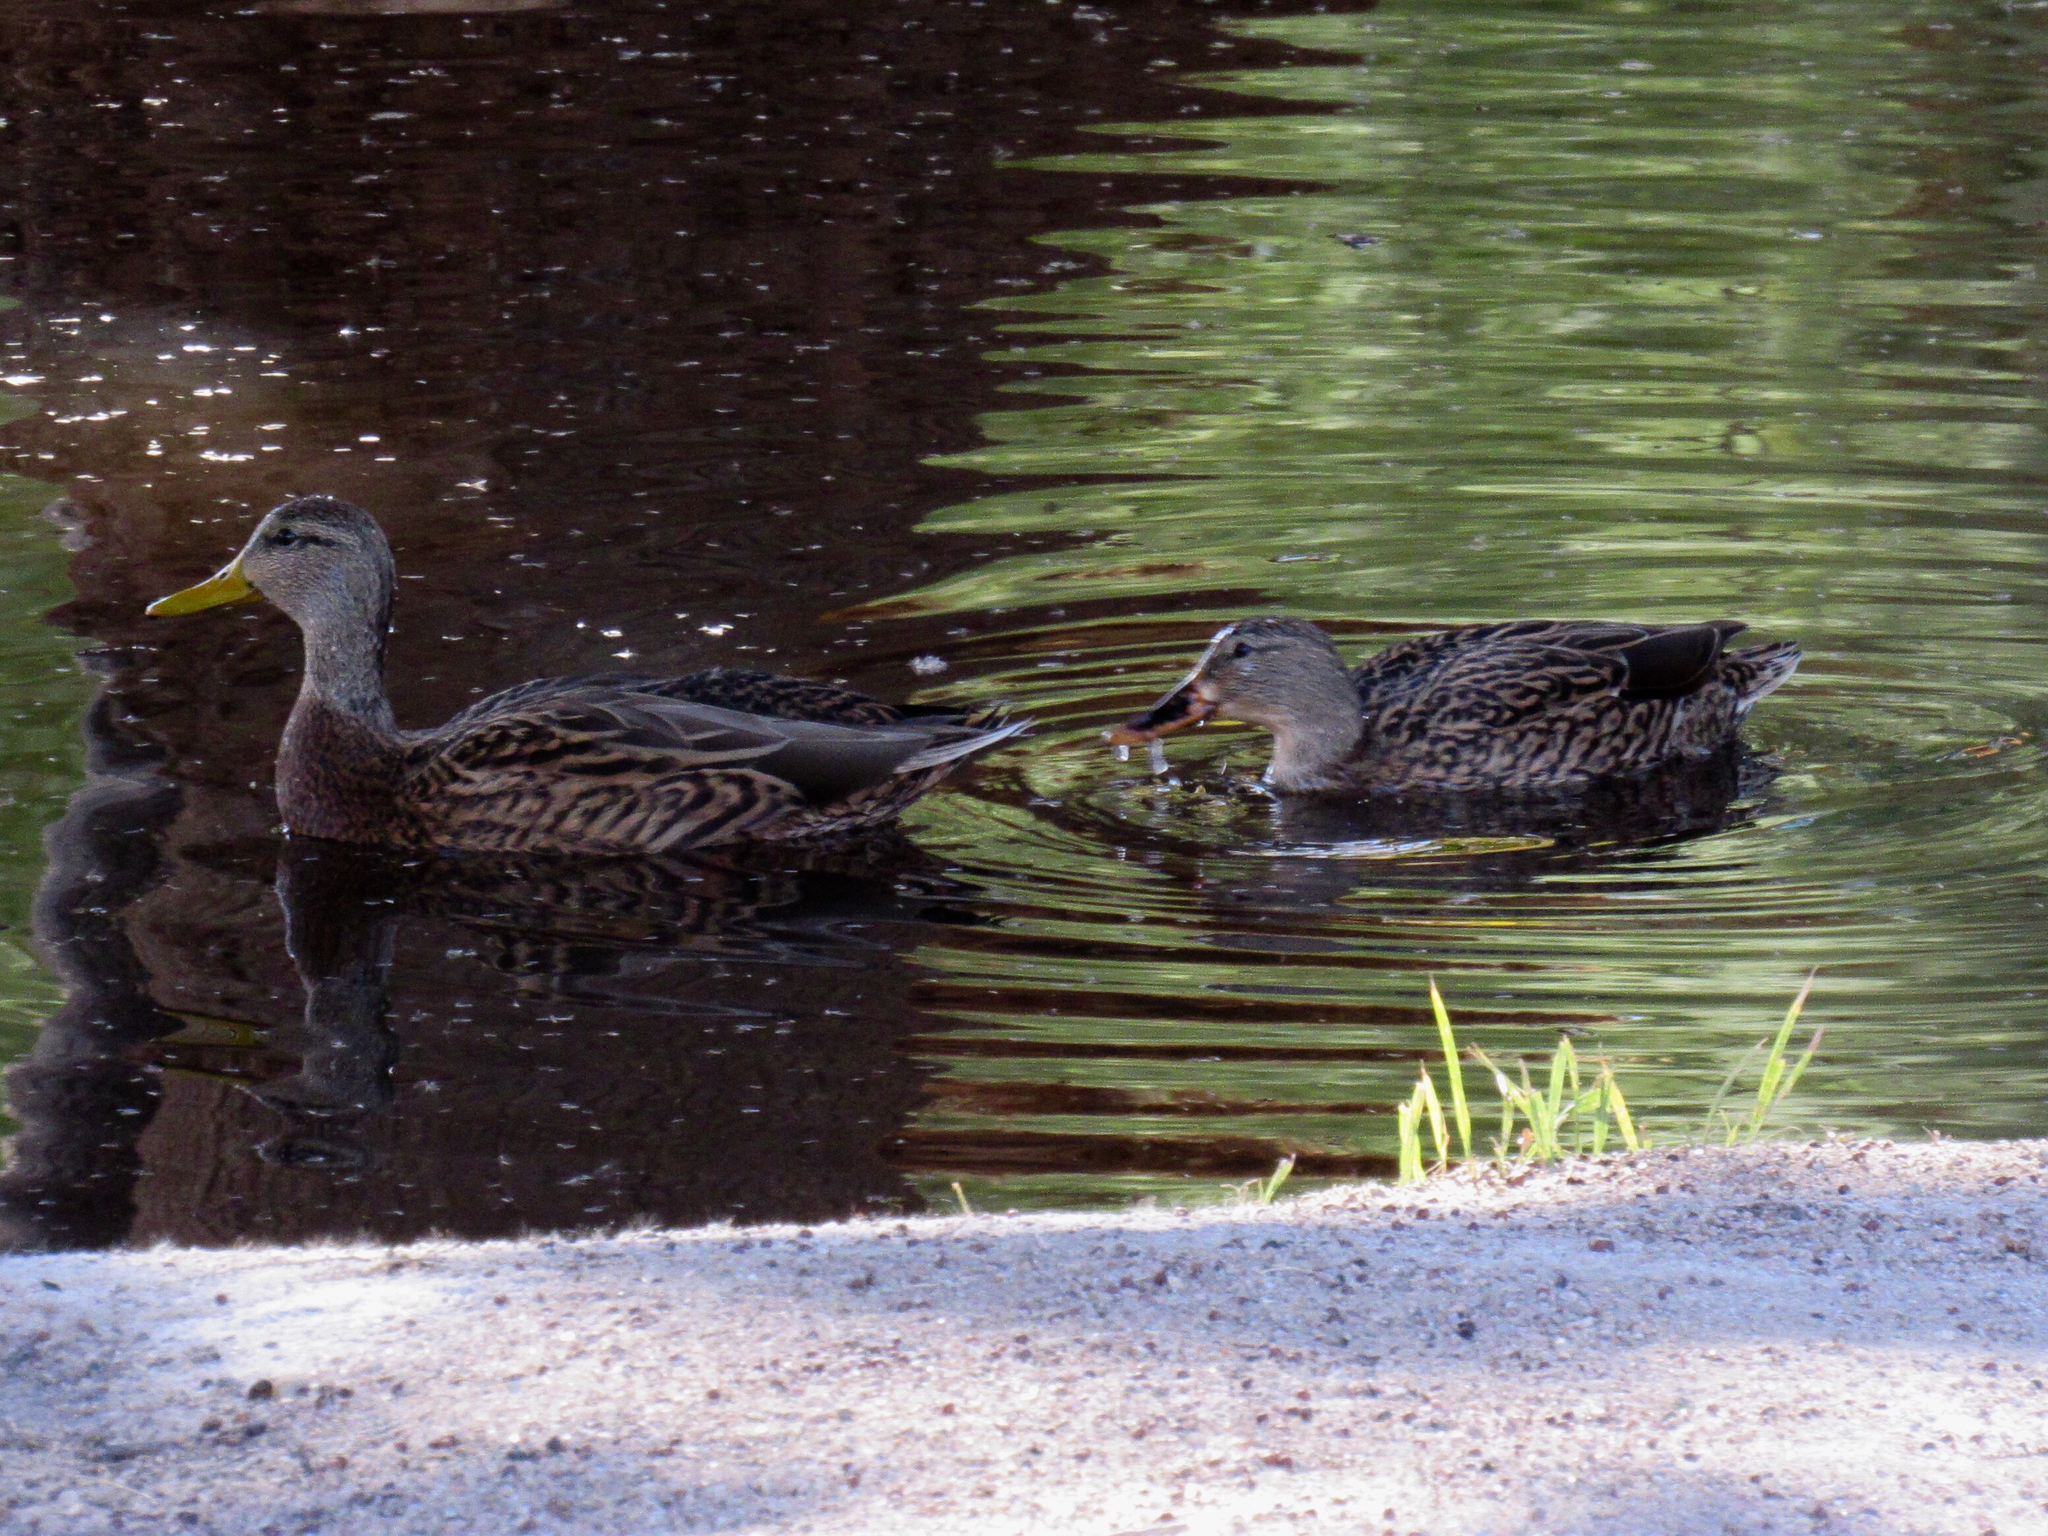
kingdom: Animalia
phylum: Chordata
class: Aves
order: Anseriformes
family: Anatidae
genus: Anas
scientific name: Anas
